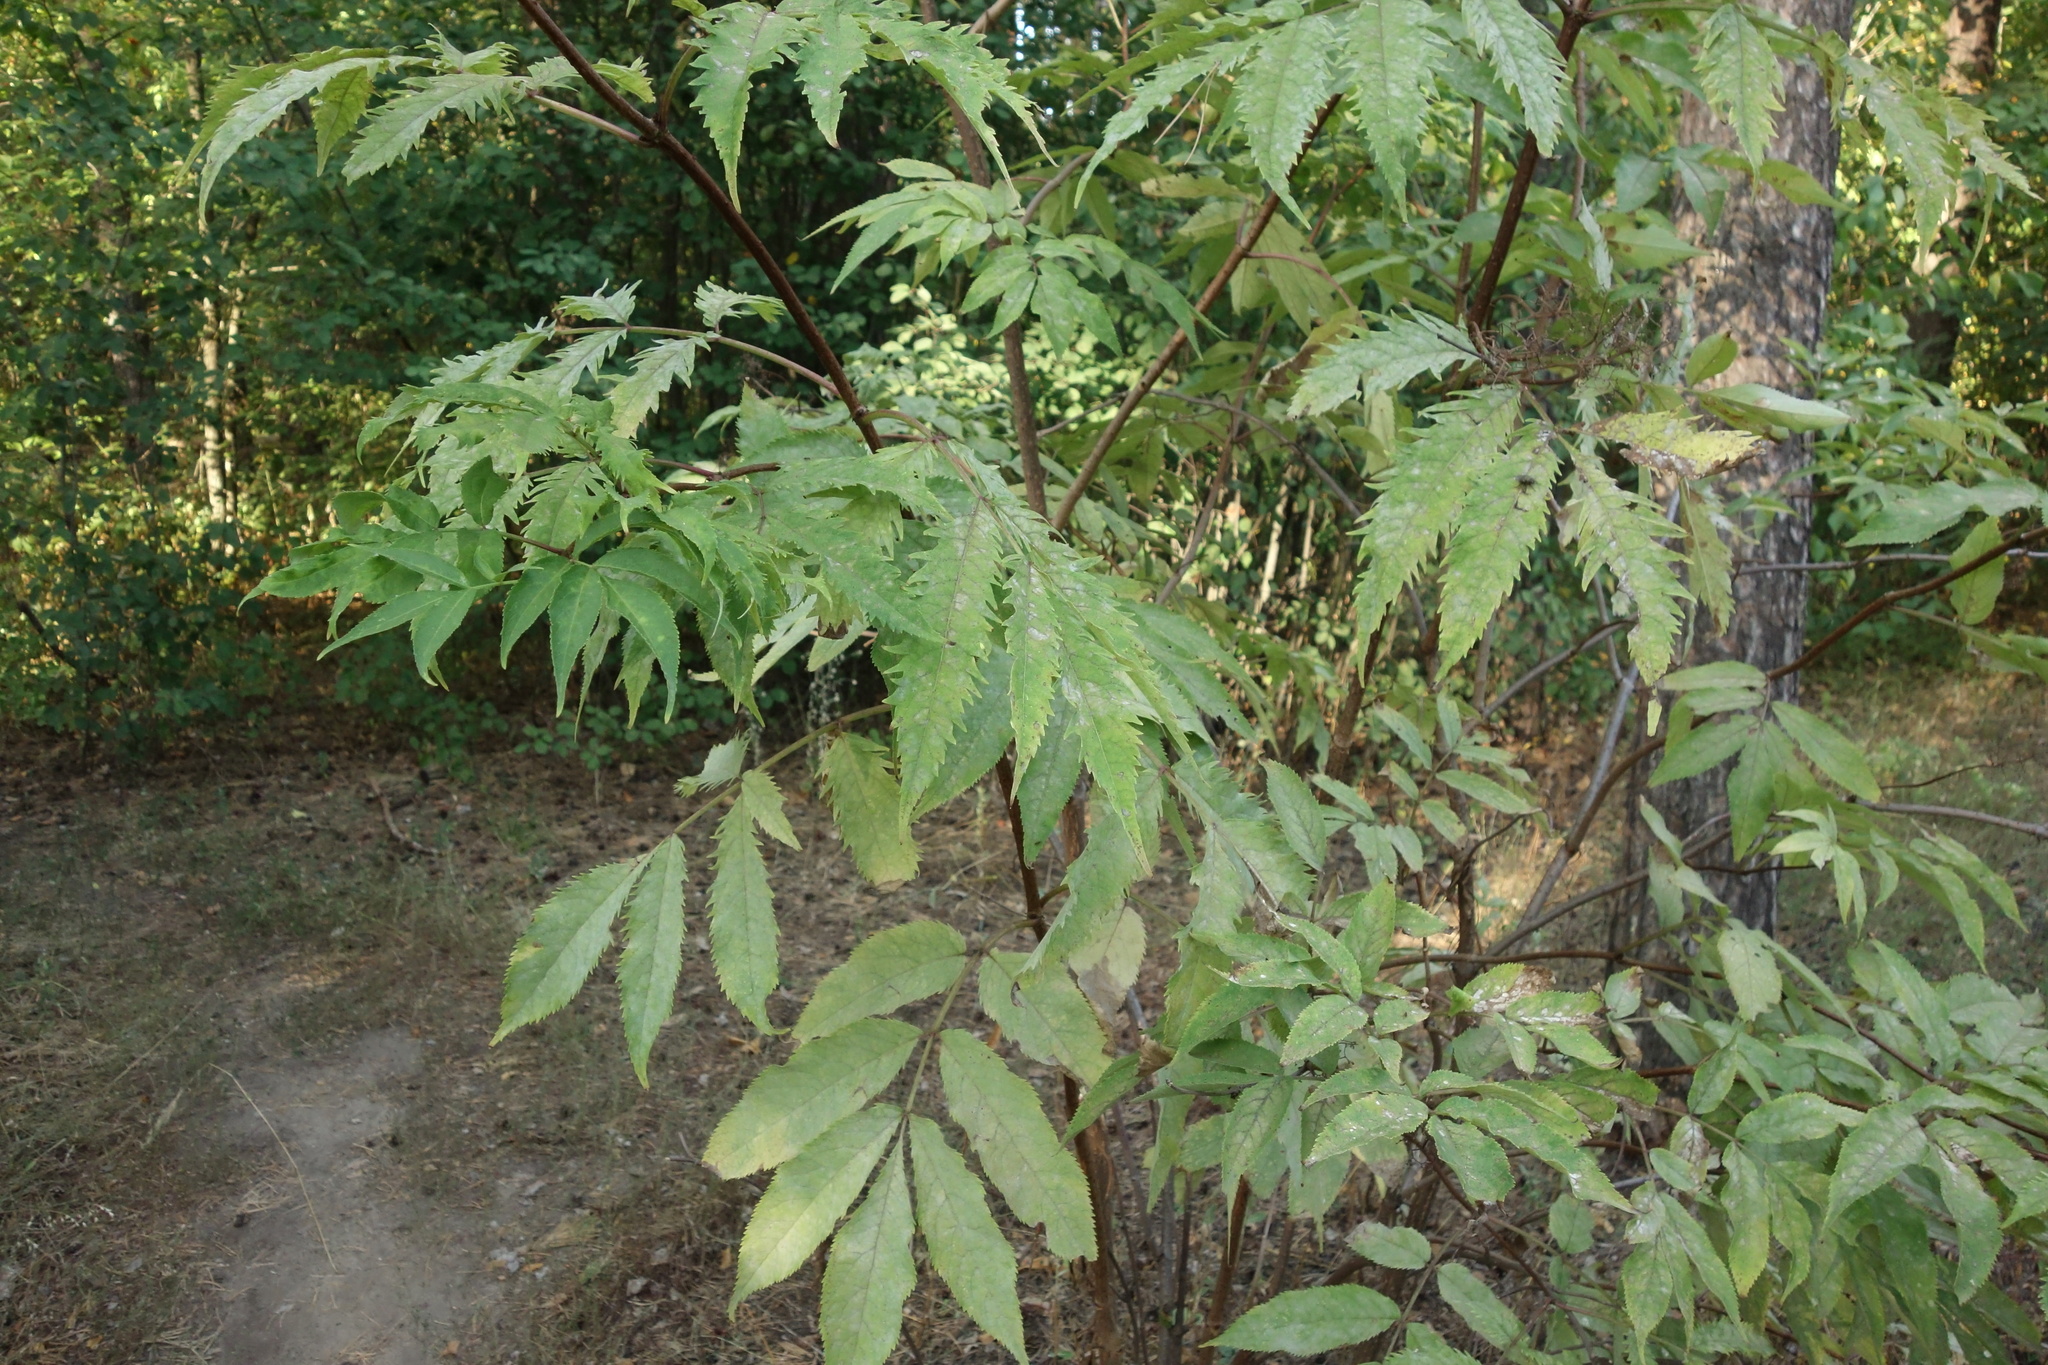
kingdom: Plantae
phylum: Tracheophyta
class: Magnoliopsida
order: Dipsacales
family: Viburnaceae
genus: Sambucus
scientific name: Sambucus racemosa
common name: Red-berried elder
